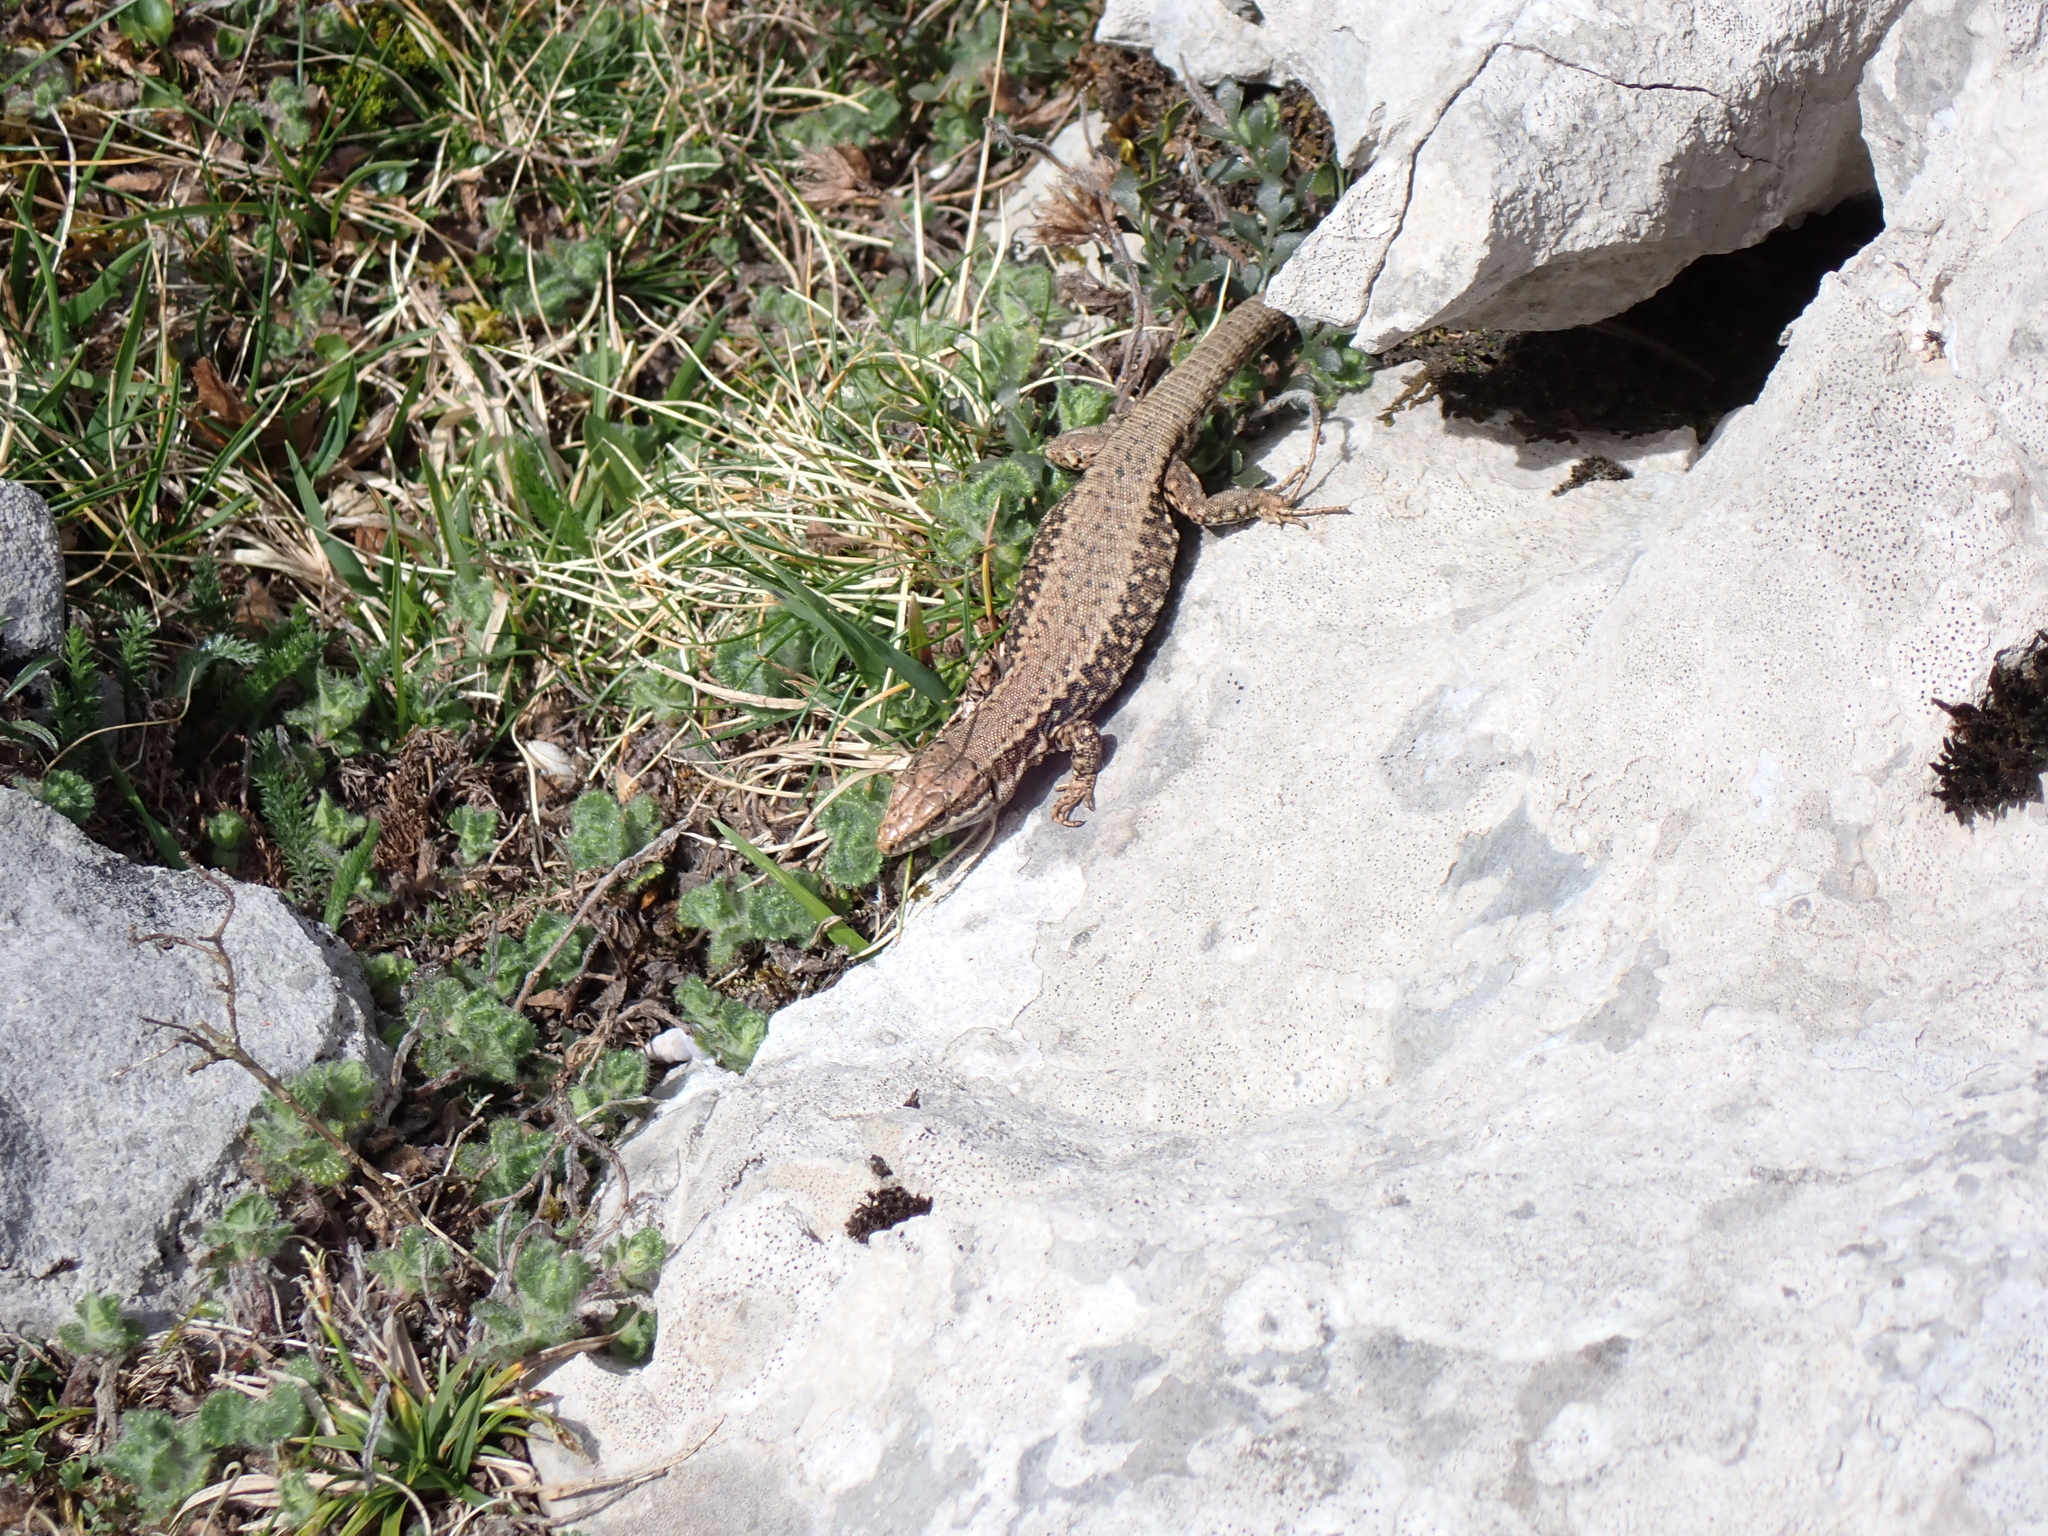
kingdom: Animalia
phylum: Chordata
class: Squamata
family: Lacertidae
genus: Podarcis
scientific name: Podarcis muralis
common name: Common wall lizard
